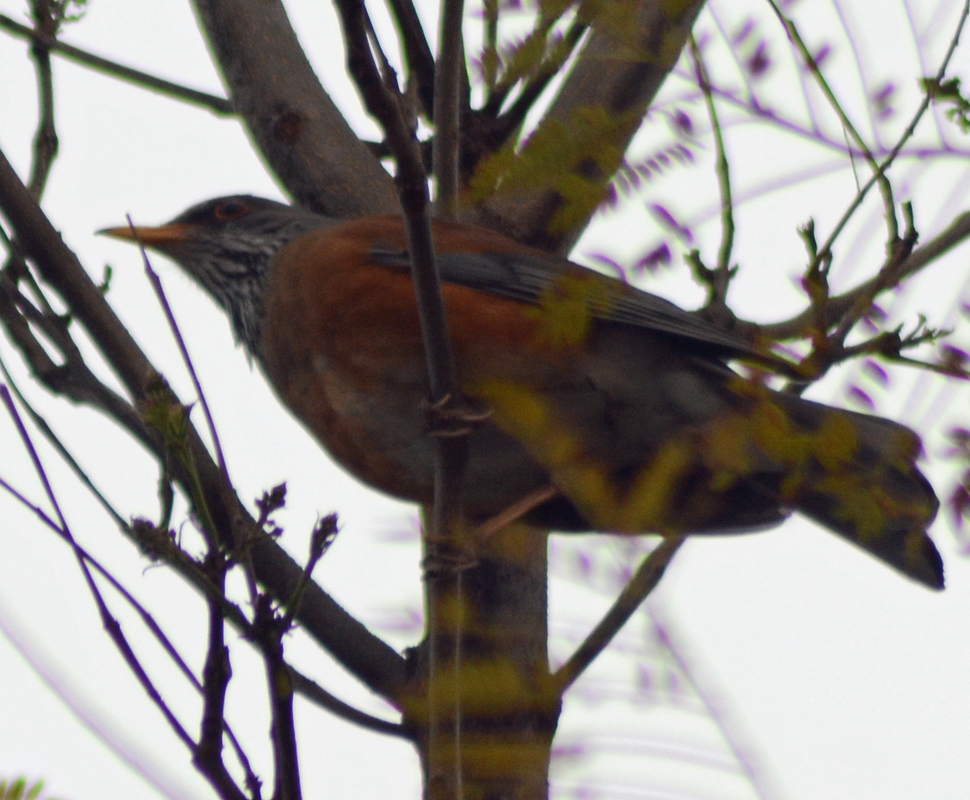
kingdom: Animalia
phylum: Chordata
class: Aves
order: Passeriformes
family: Turdidae
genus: Turdus
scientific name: Turdus rufopalliatus
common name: Rufous-backed robin
